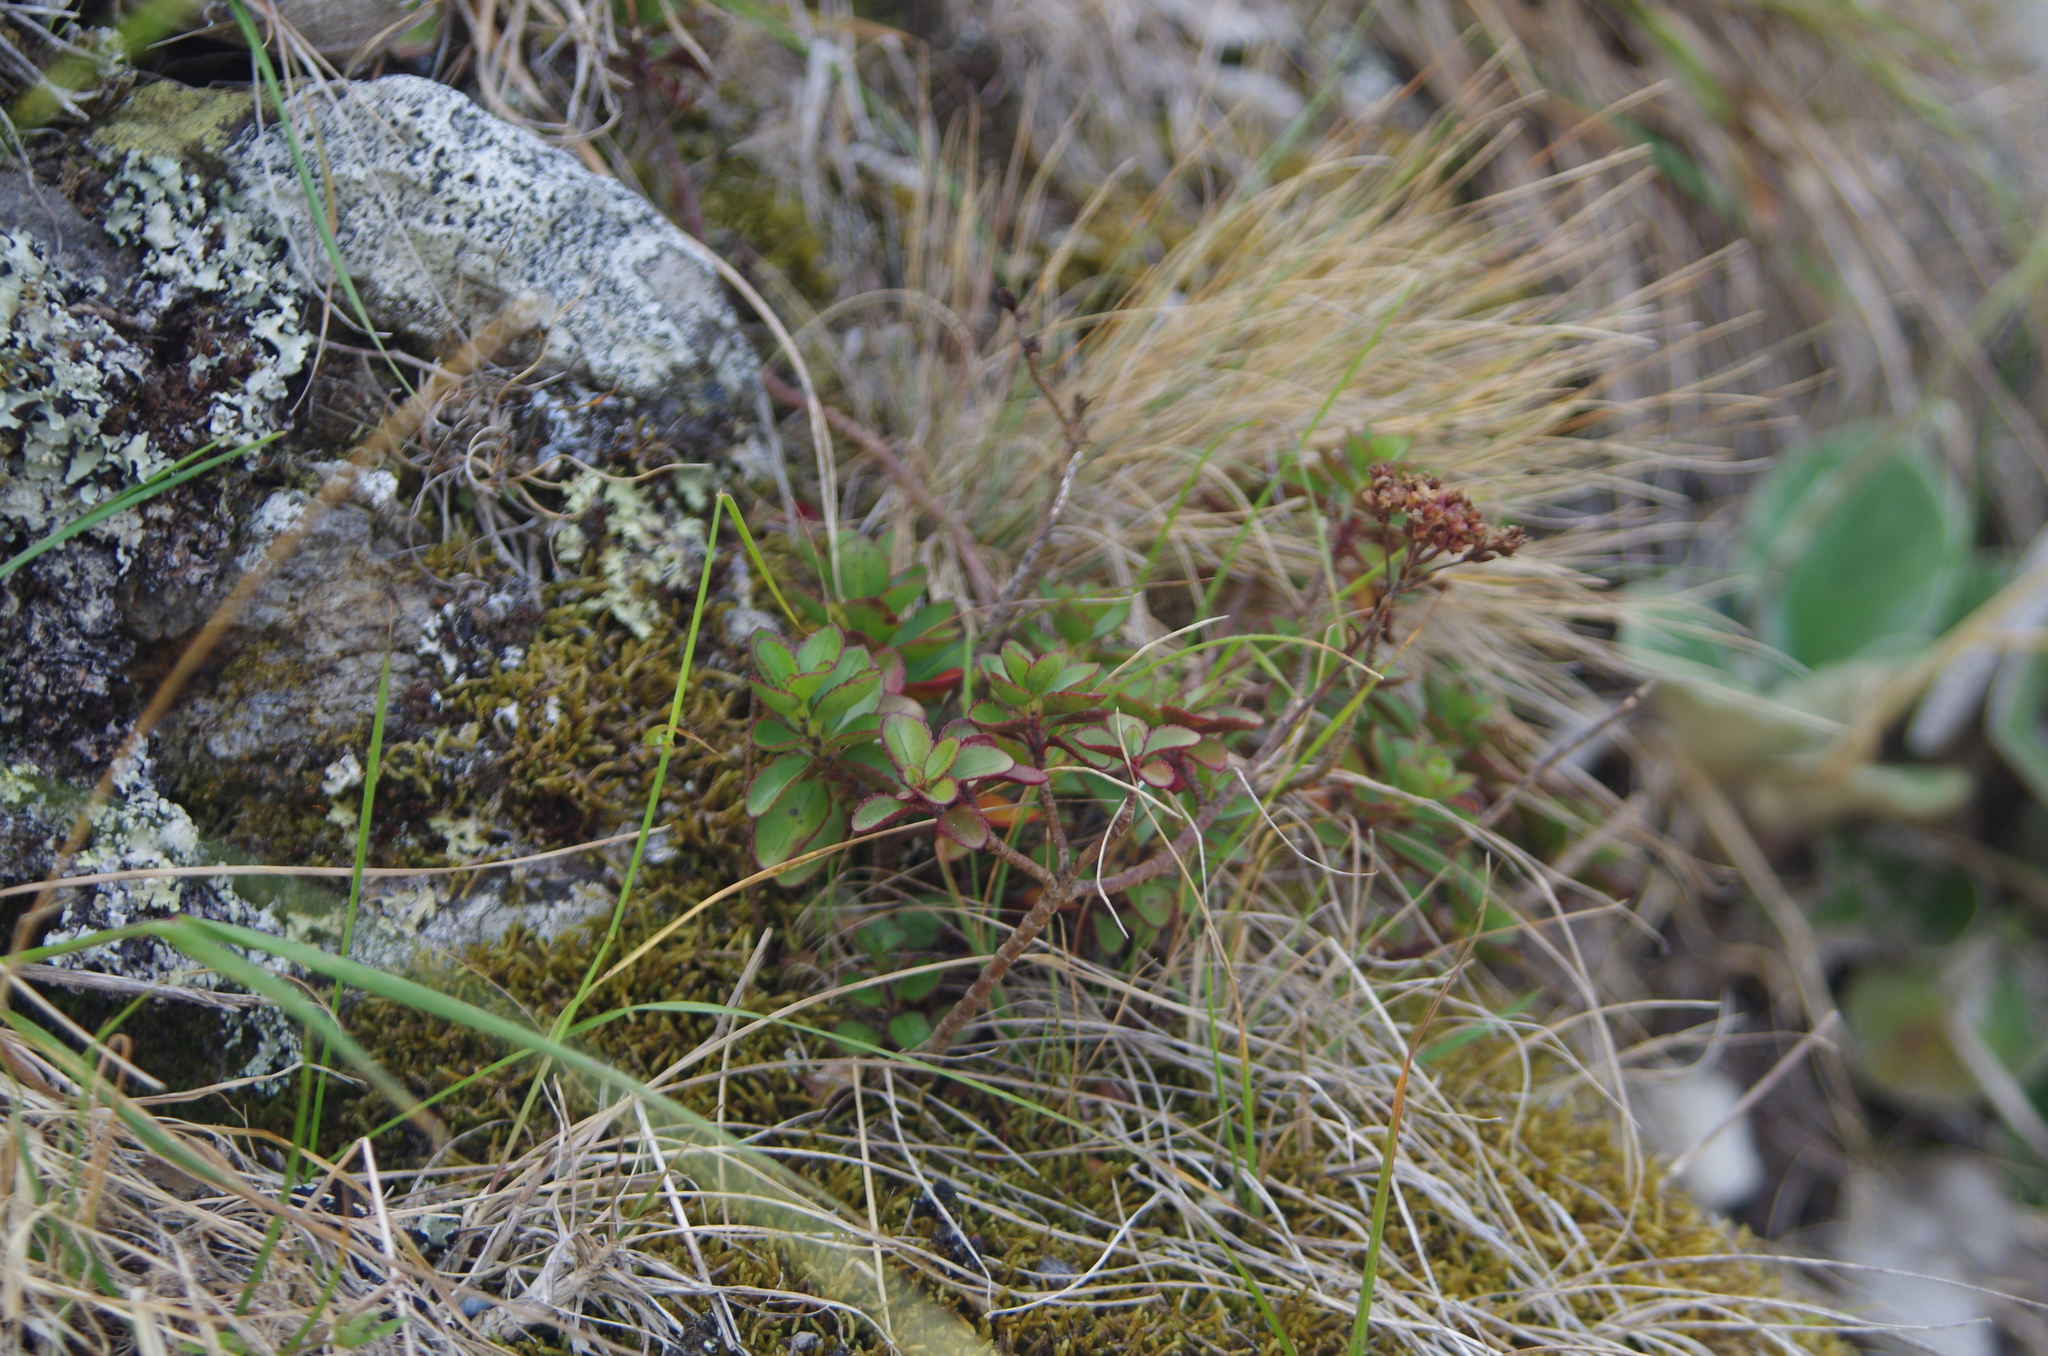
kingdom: Plantae
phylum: Tracheophyta
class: Magnoliopsida
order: Lamiales
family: Plantaginaceae
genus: Veronica
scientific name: Veronica lavaudiana
